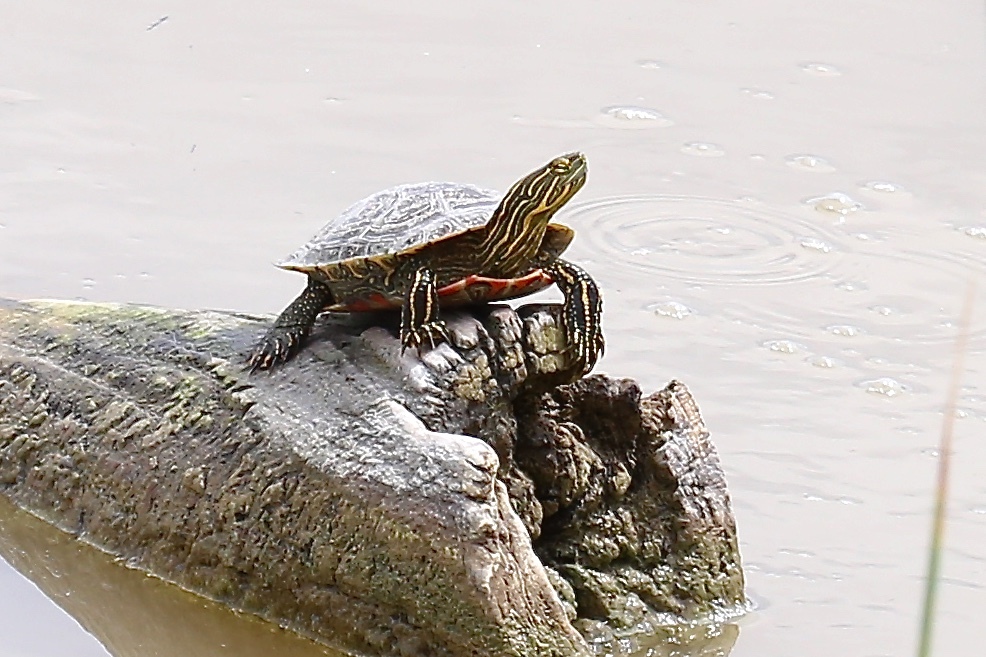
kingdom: Animalia
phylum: Chordata
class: Testudines
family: Emydidae
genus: Chrysemys
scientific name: Chrysemys picta
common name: Painted turtle
